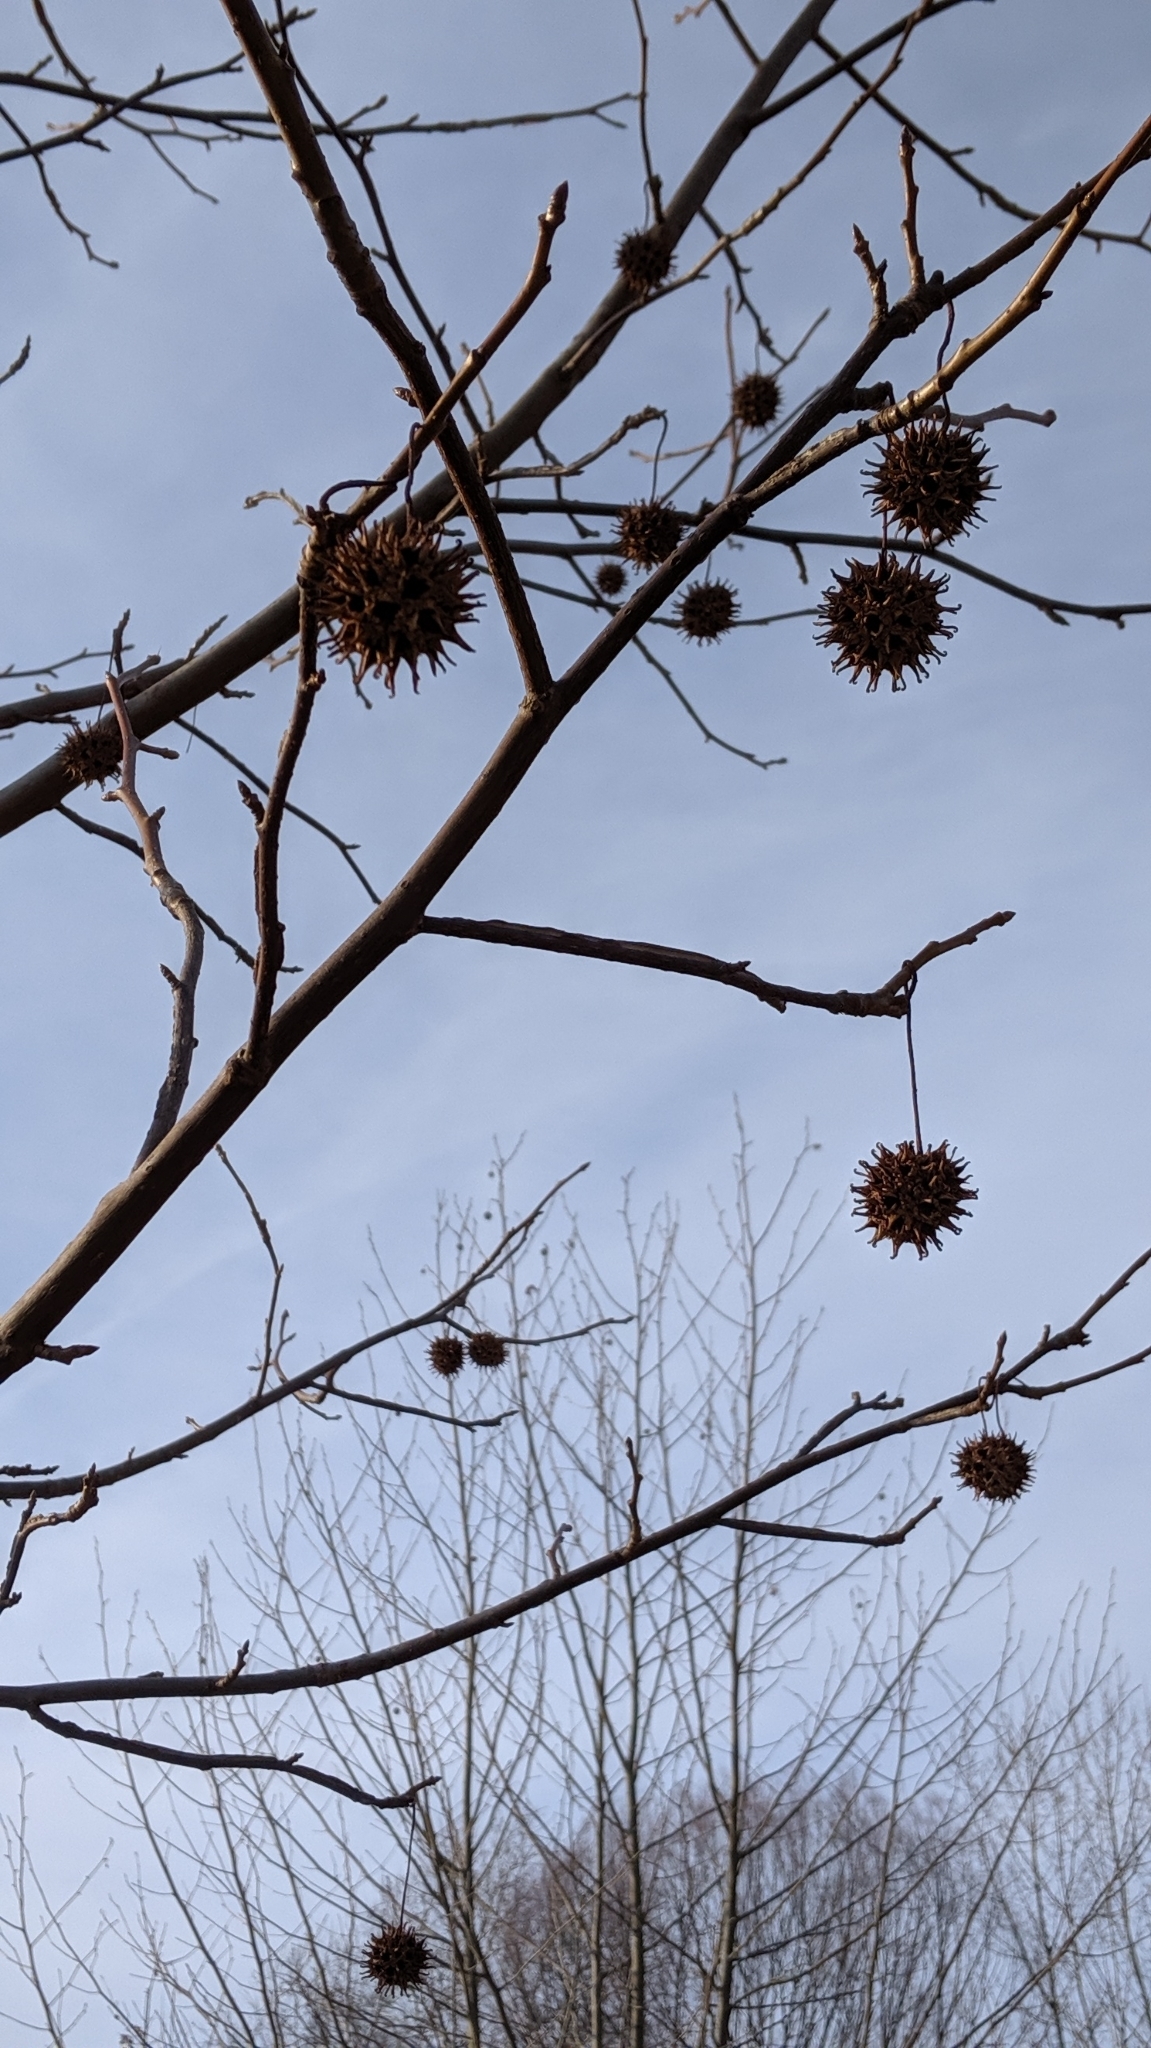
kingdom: Plantae
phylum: Tracheophyta
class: Magnoliopsida
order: Saxifragales
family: Altingiaceae
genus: Liquidambar
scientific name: Liquidambar styraciflua
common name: Sweet gum
